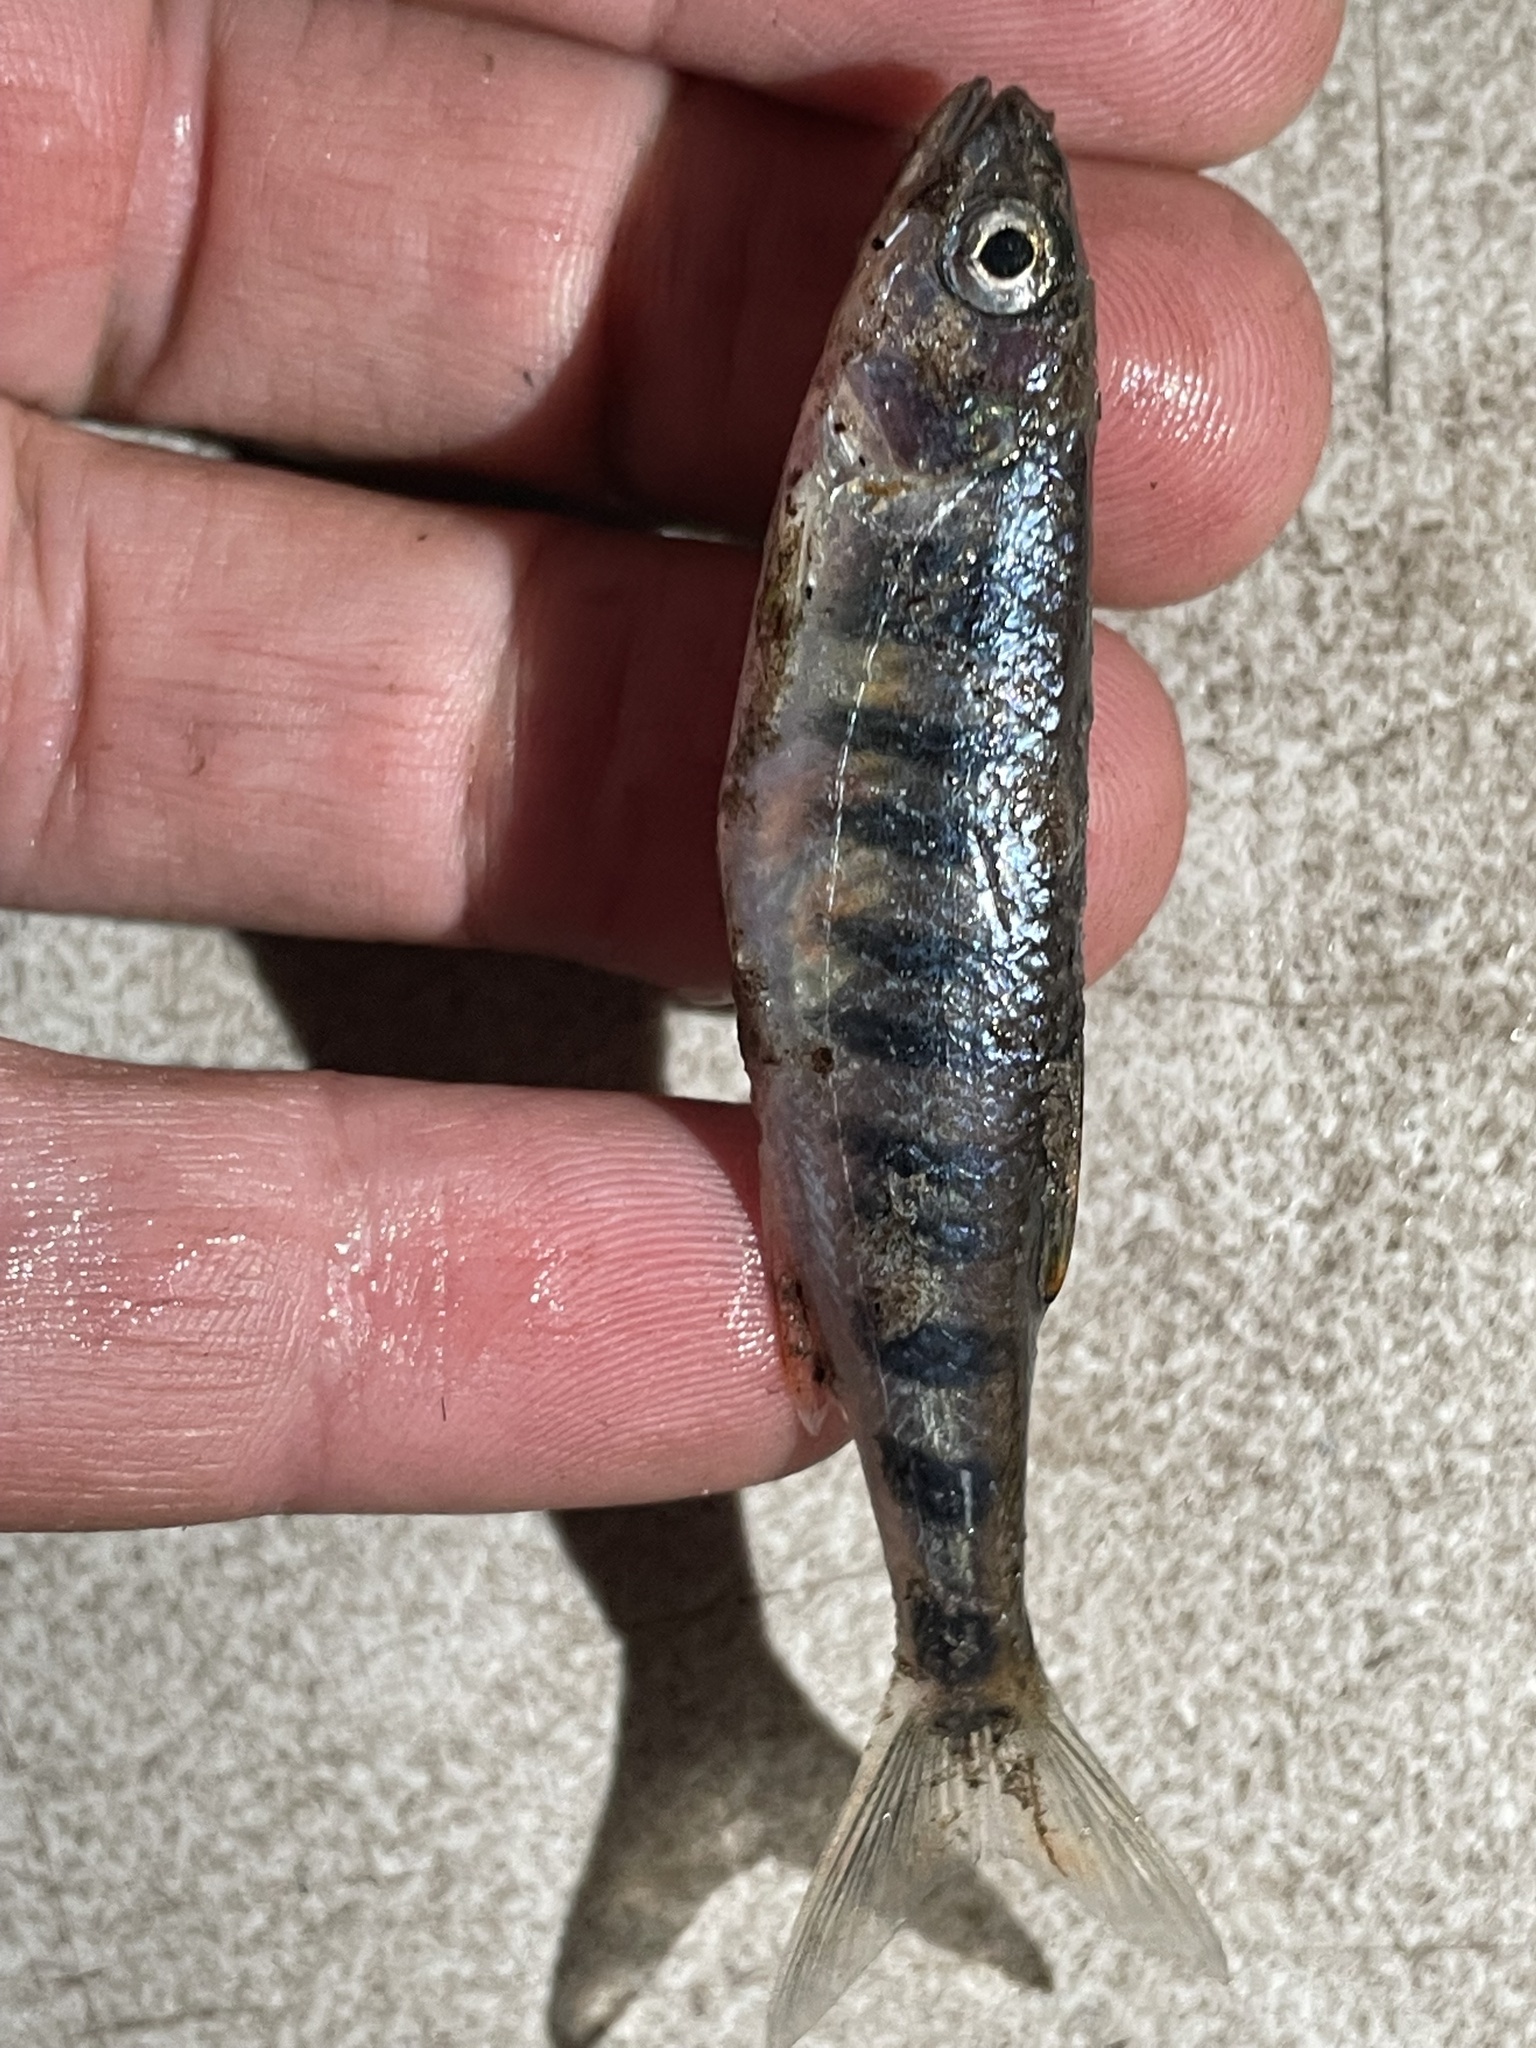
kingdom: Animalia
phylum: Chordata
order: Cypriniformes
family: Cyprinidae
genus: Opsaridium
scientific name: Opsaridium zambezense
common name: Barred minnow
